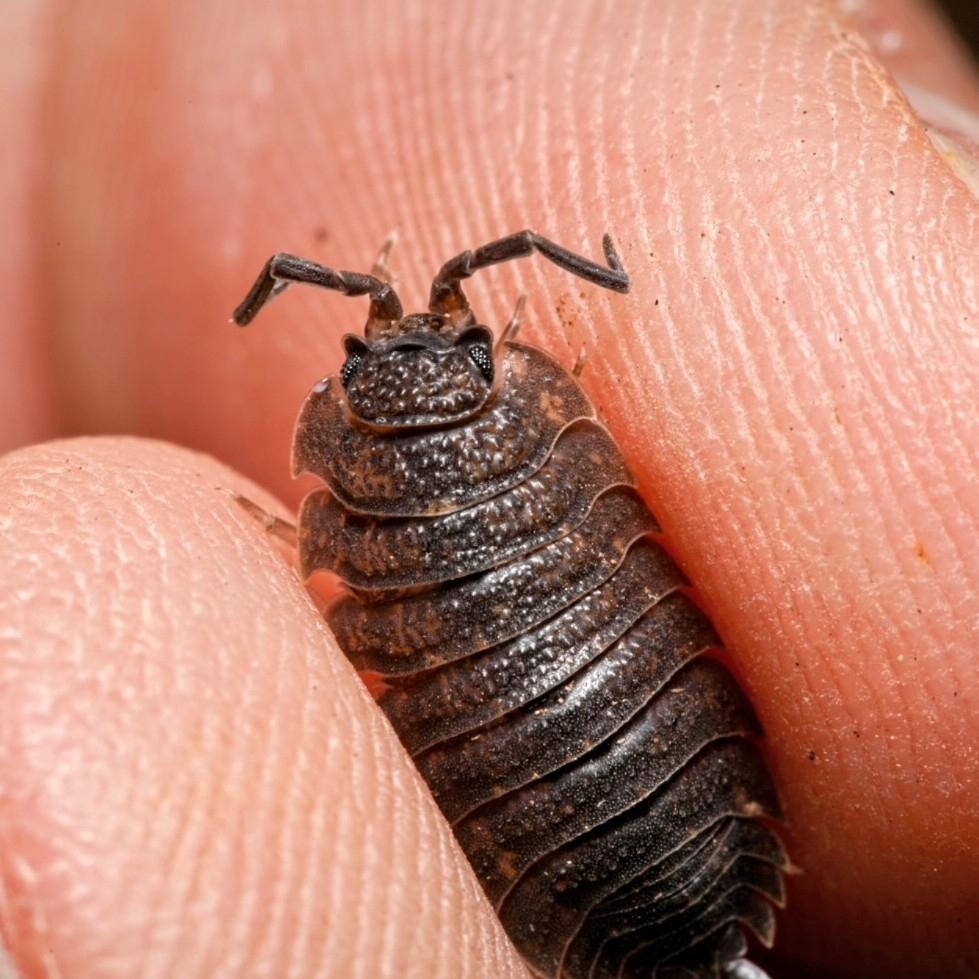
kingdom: Animalia
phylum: Arthropoda
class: Malacostraca
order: Isopoda
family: Porcellionidae
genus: Porcellio
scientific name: Porcellio scaber
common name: Common rough woodlouse
